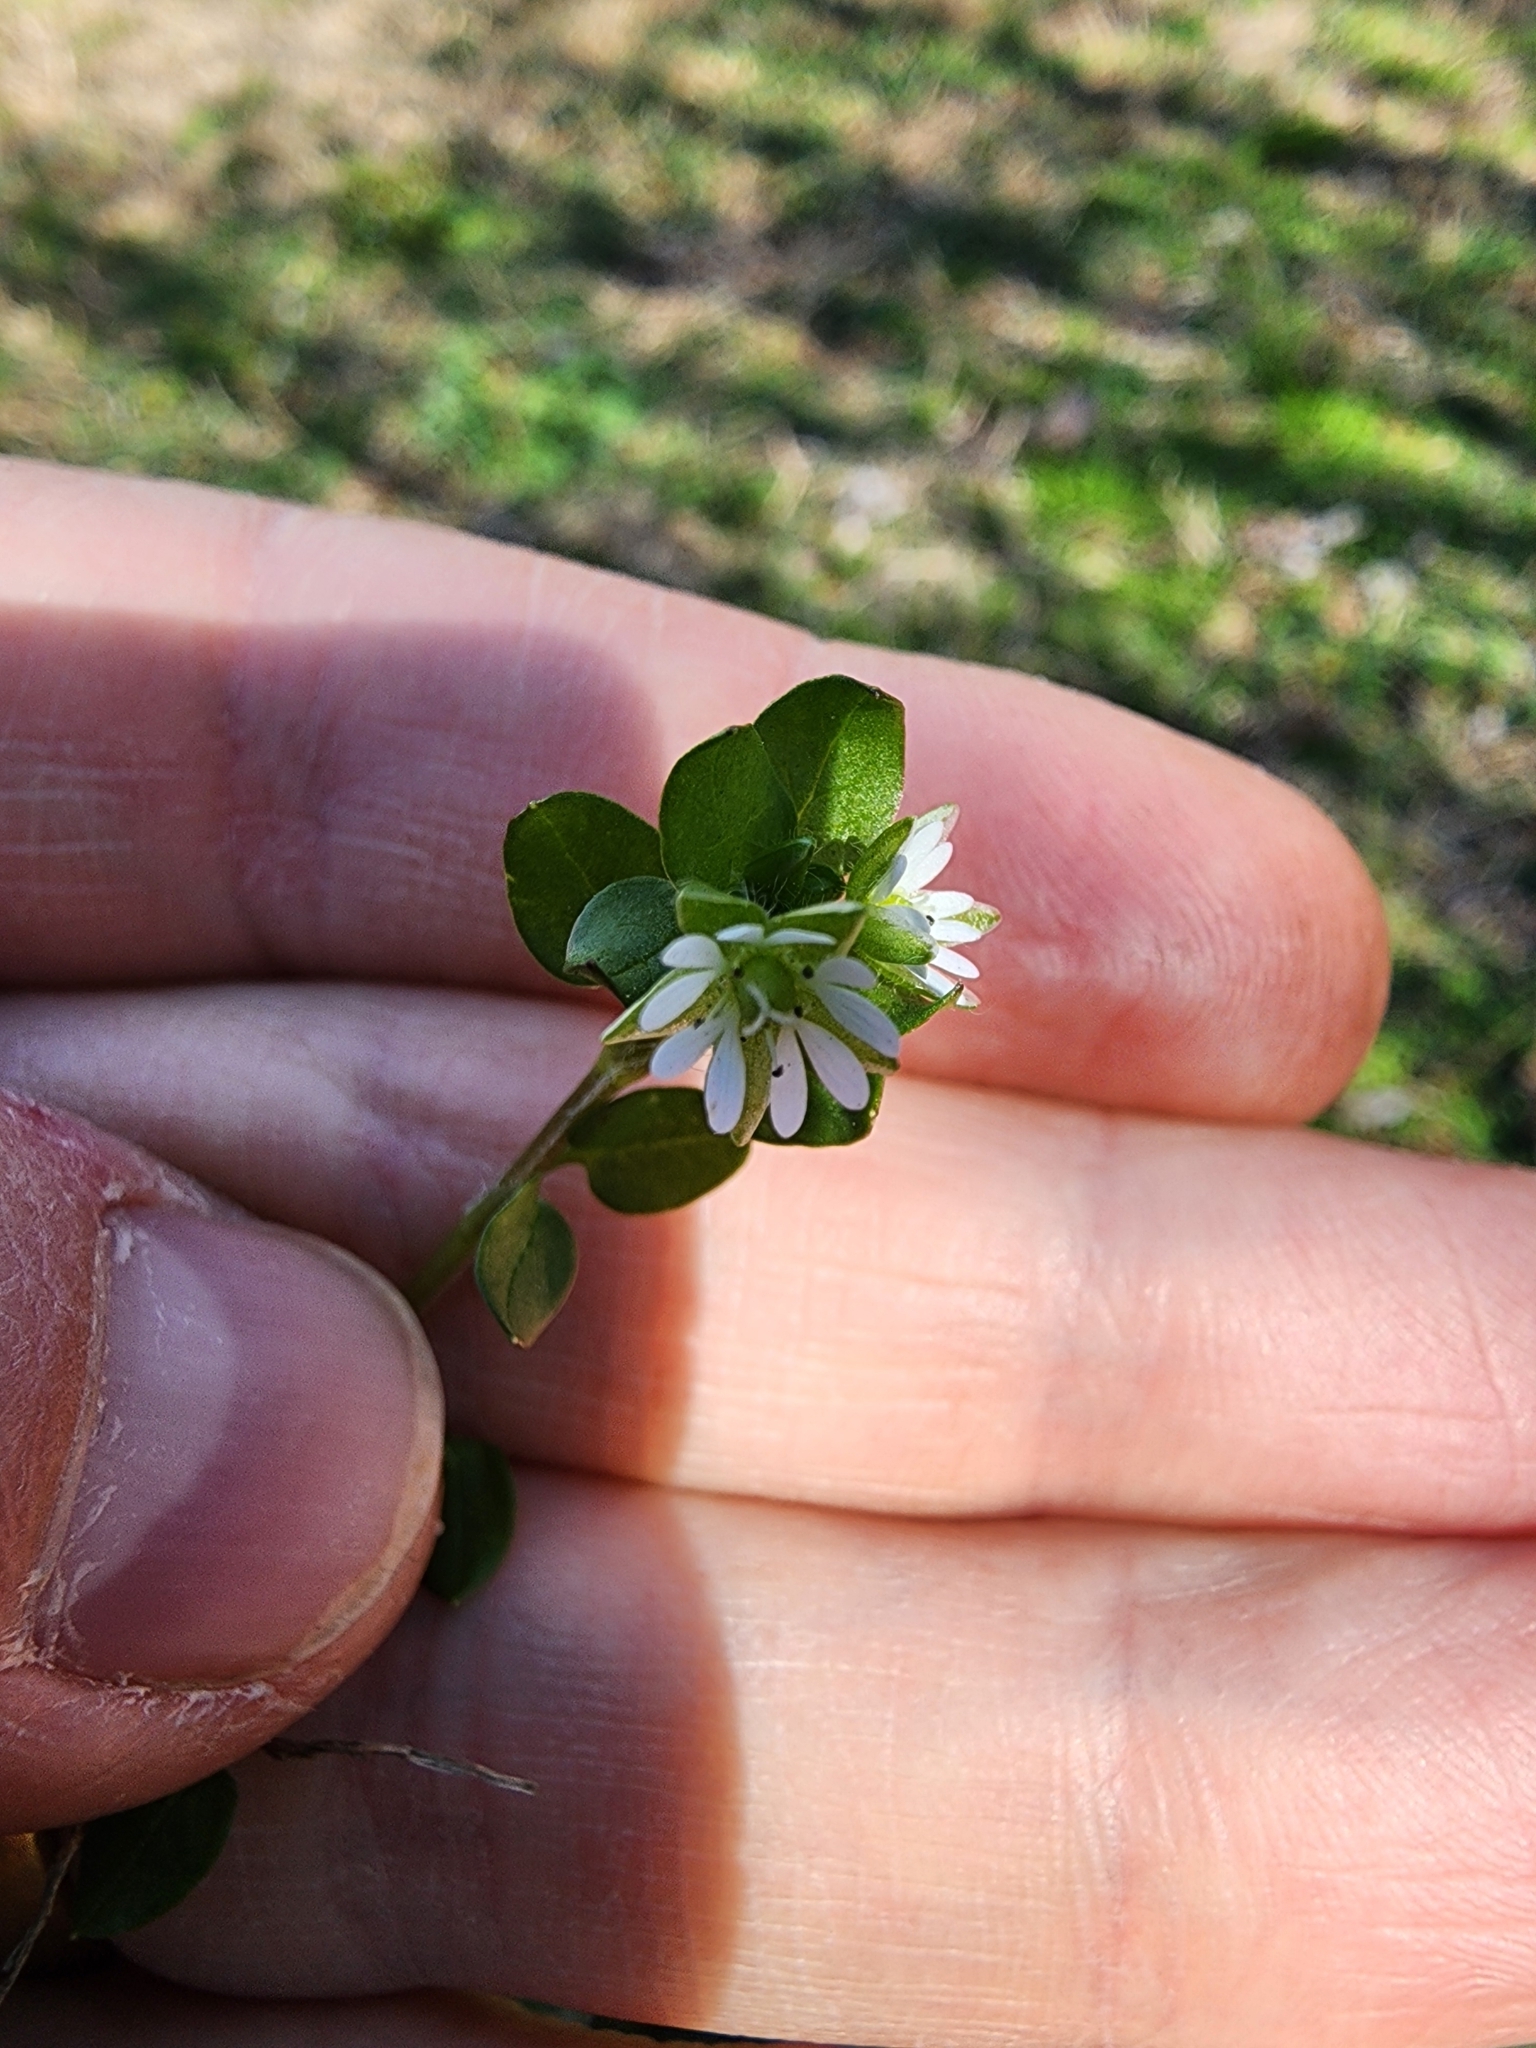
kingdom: Plantae
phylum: Tracheophyta
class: Magnoliopsida
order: Caryophyllales
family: Caryophyllaceae
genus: Stellaria
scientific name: Stellaria media
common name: Common chickweed
